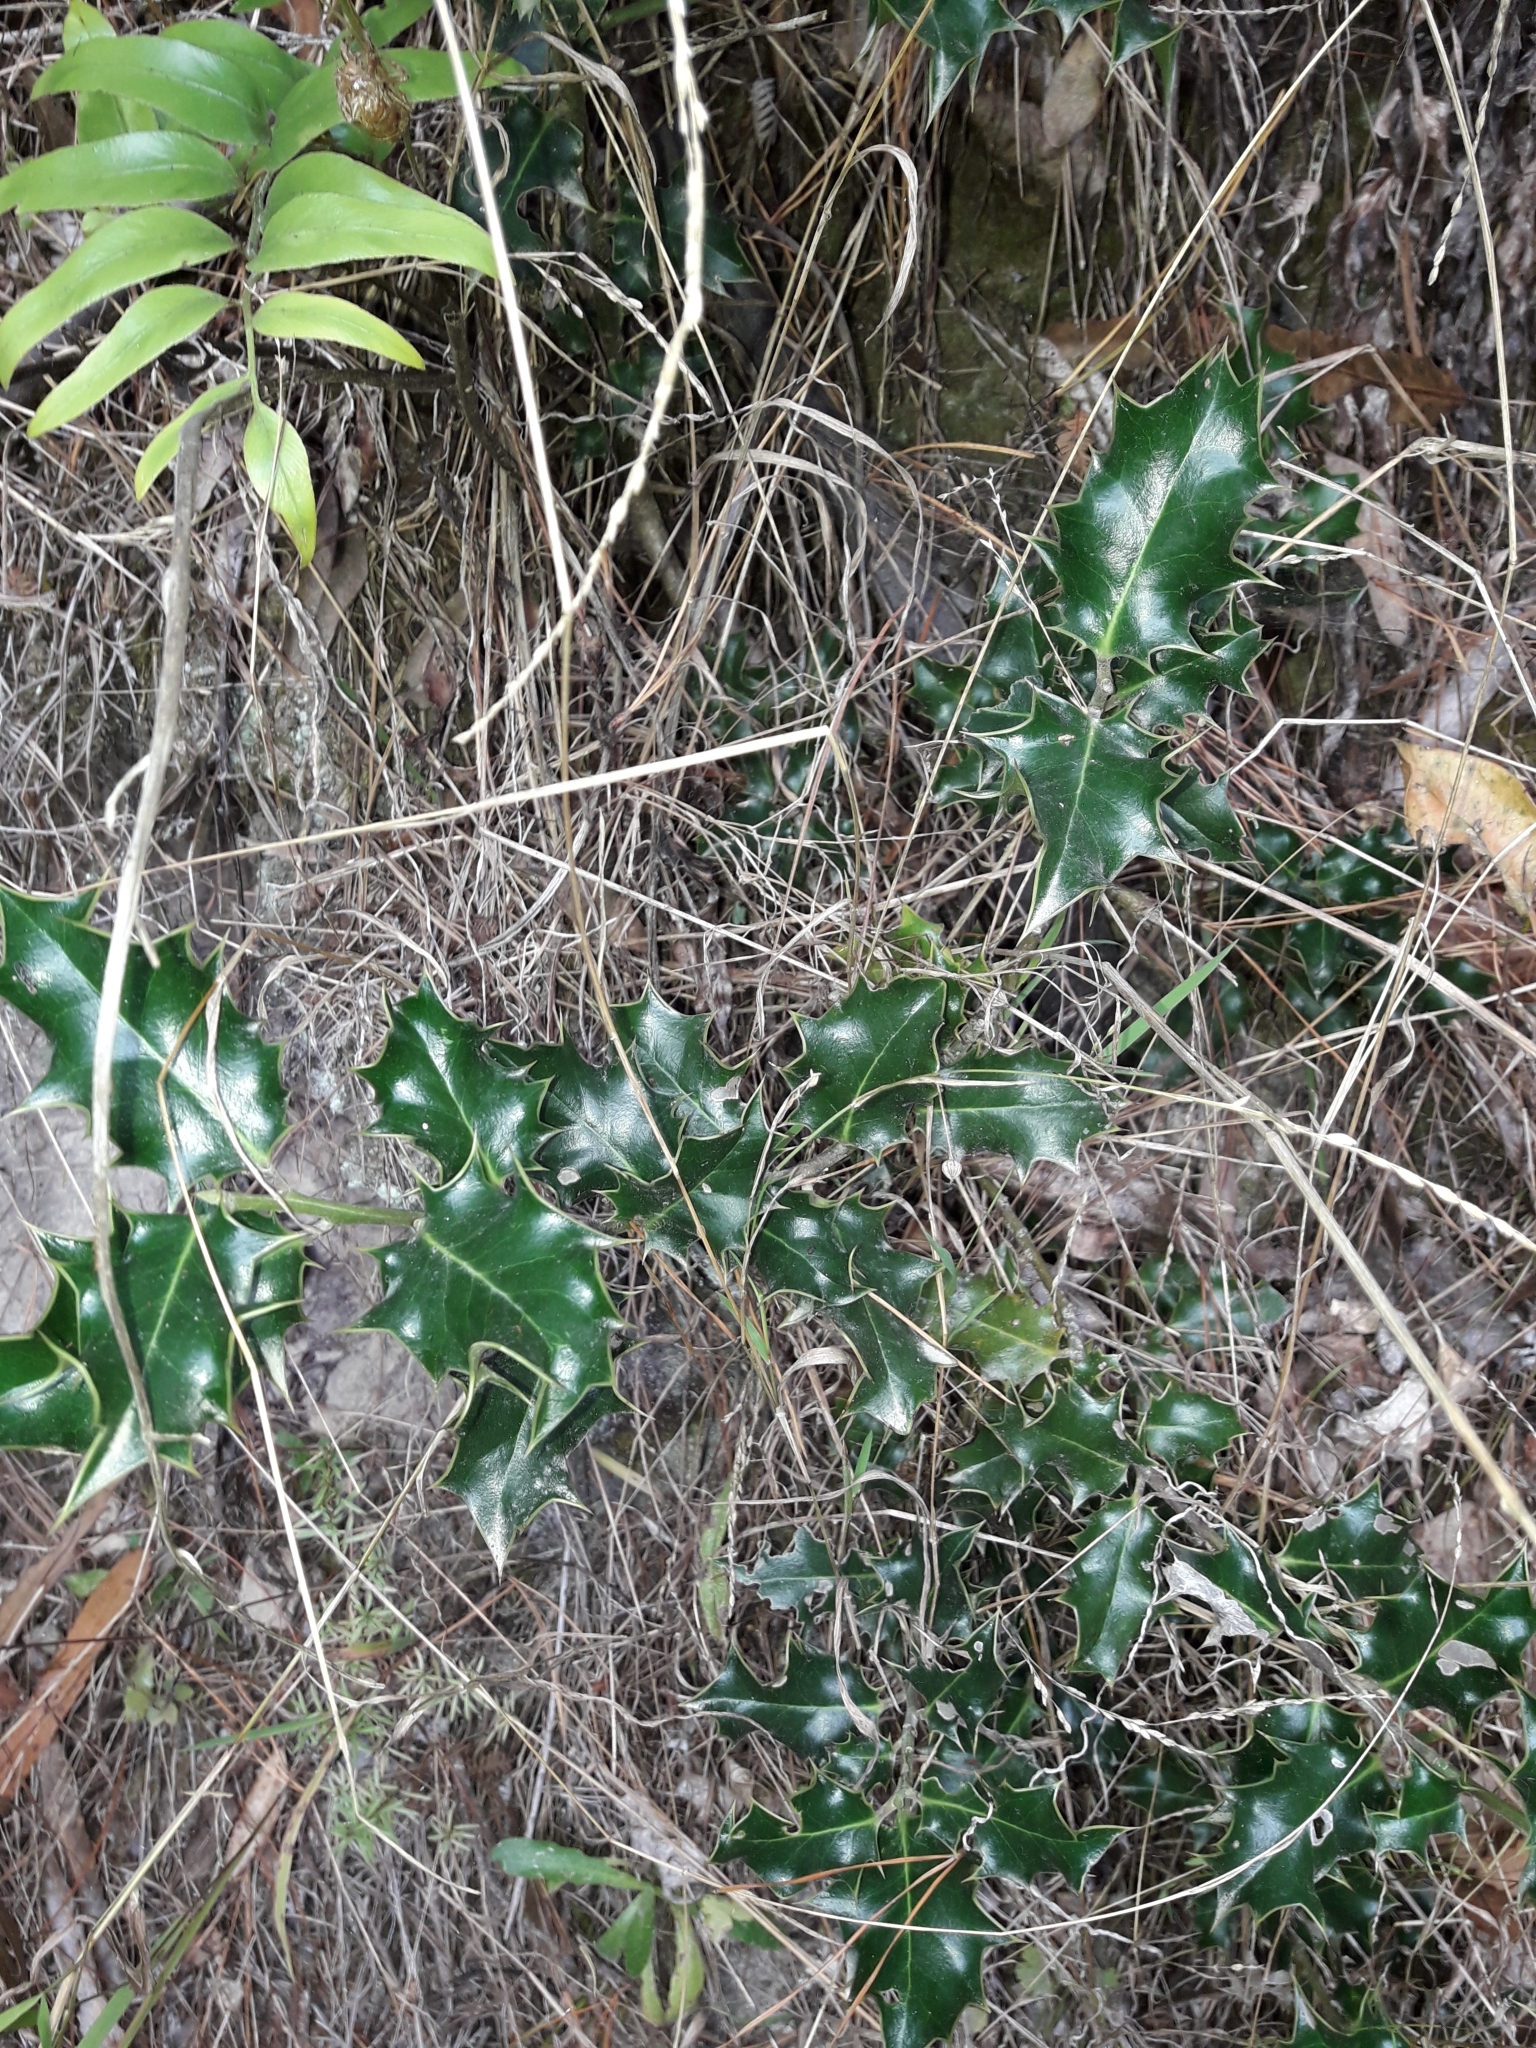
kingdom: Plantae
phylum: Tracheophyta
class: Magnoliopsida
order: Aquifoliales
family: Aquifoliaceae
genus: Ilex
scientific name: Ilex aquifolium
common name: English holly
